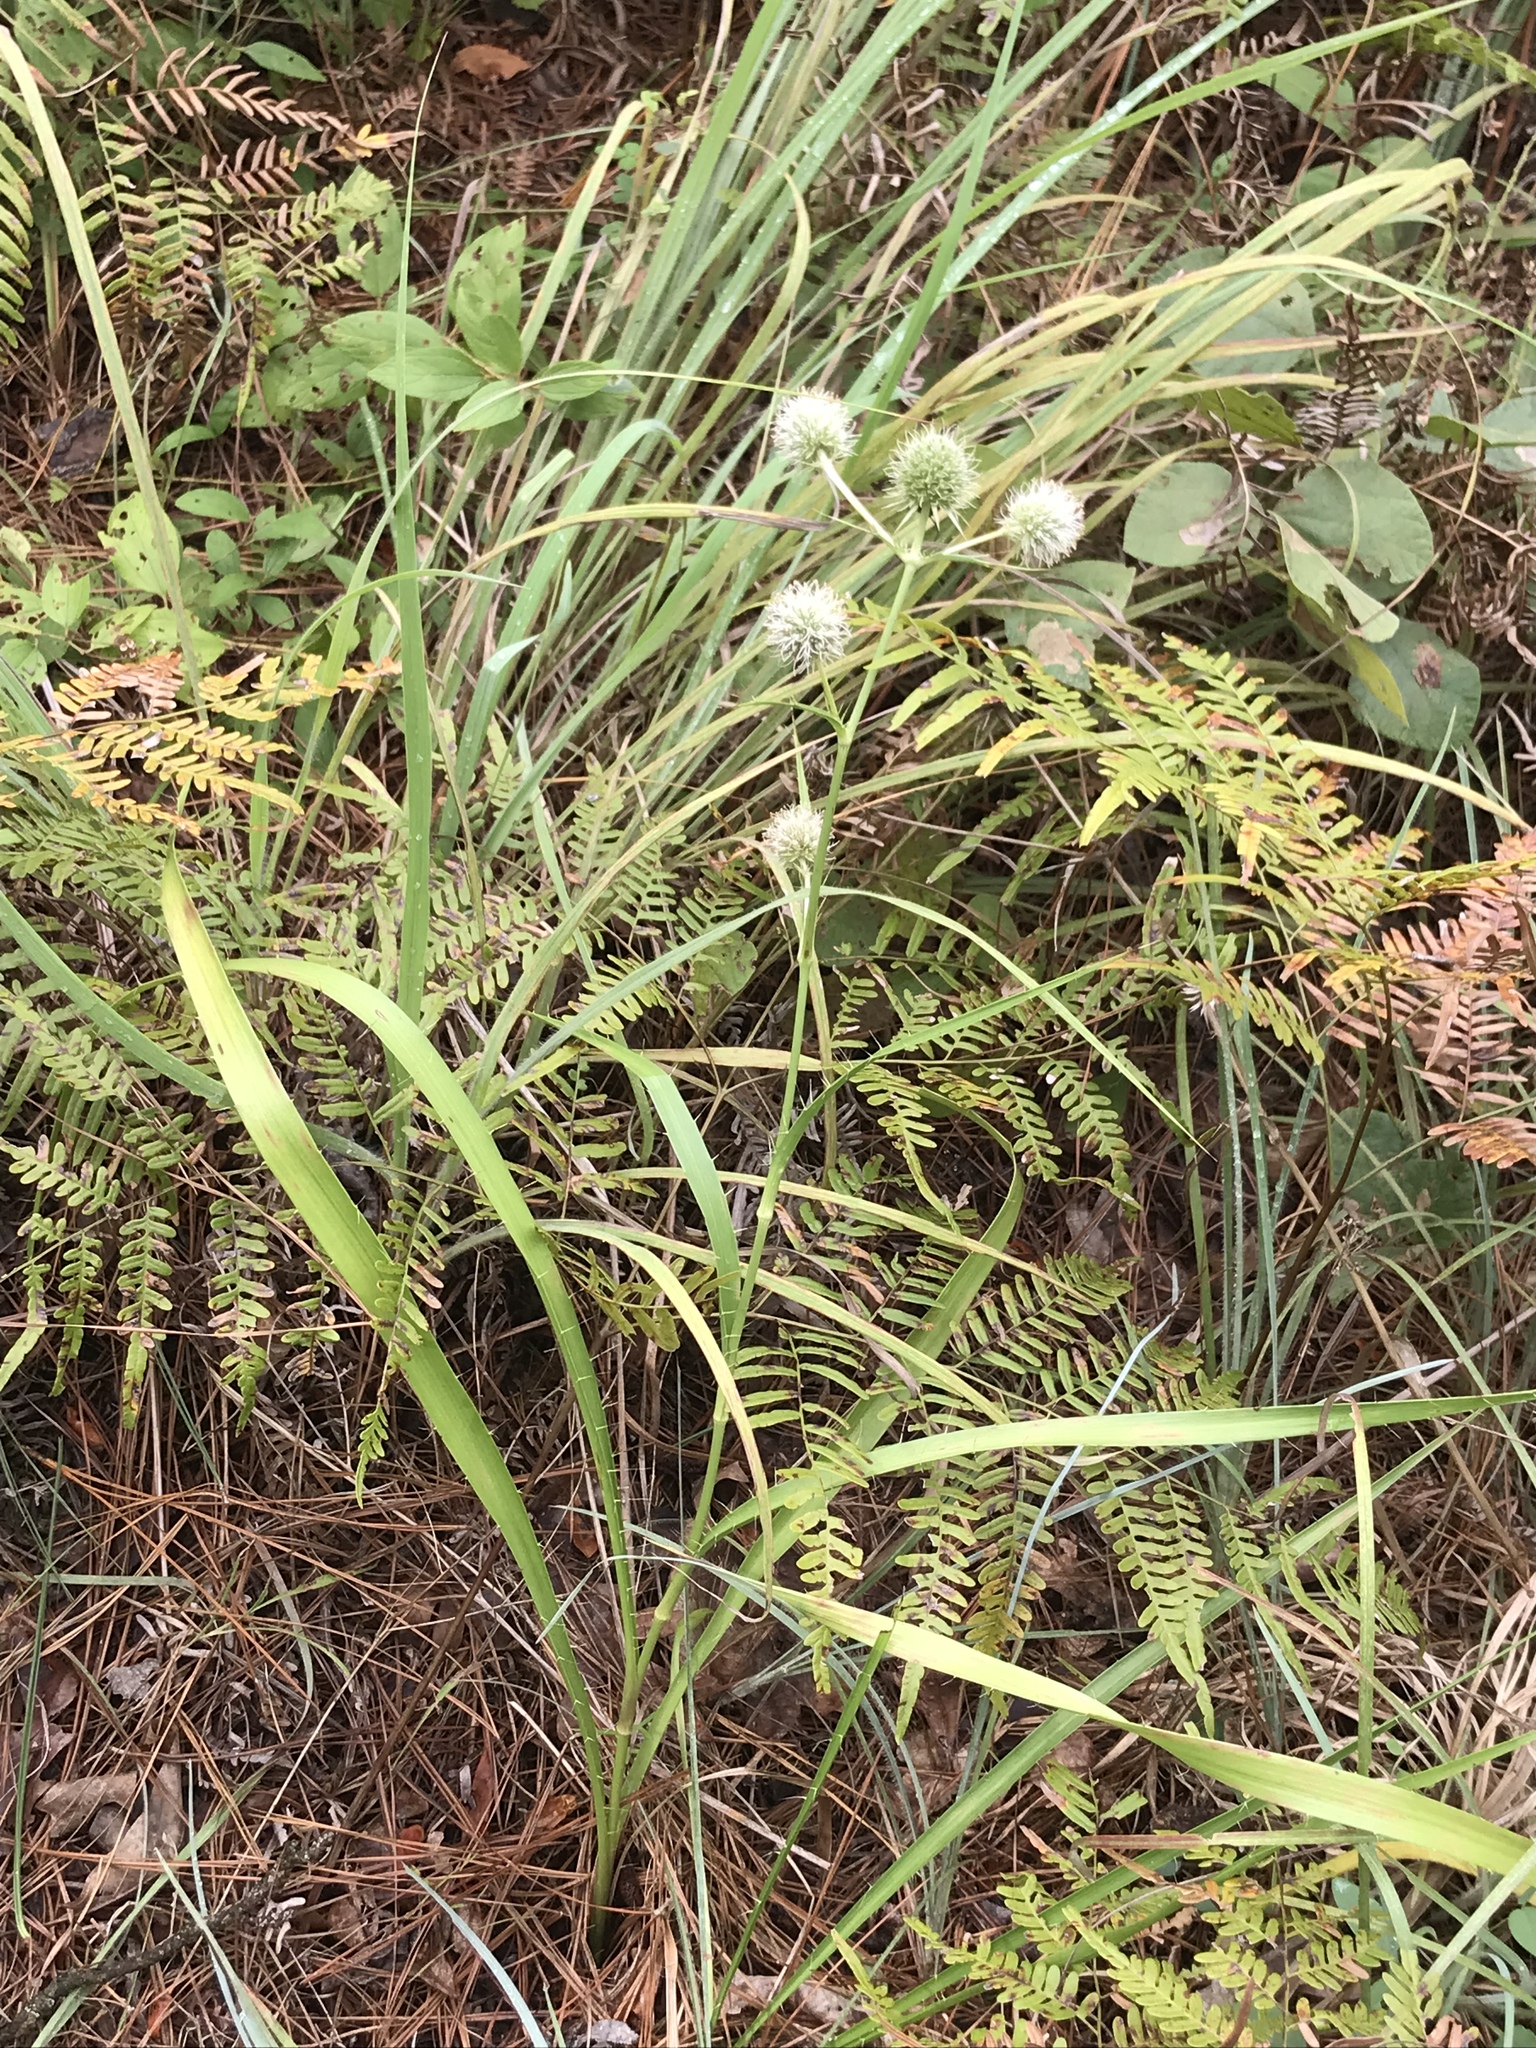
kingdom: Plantae
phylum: Tracheophyta
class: Magnoliopsida
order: Apiales
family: Apiaceae
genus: Eryngium
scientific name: Eryngium yuccifolium
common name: Button eryngo
